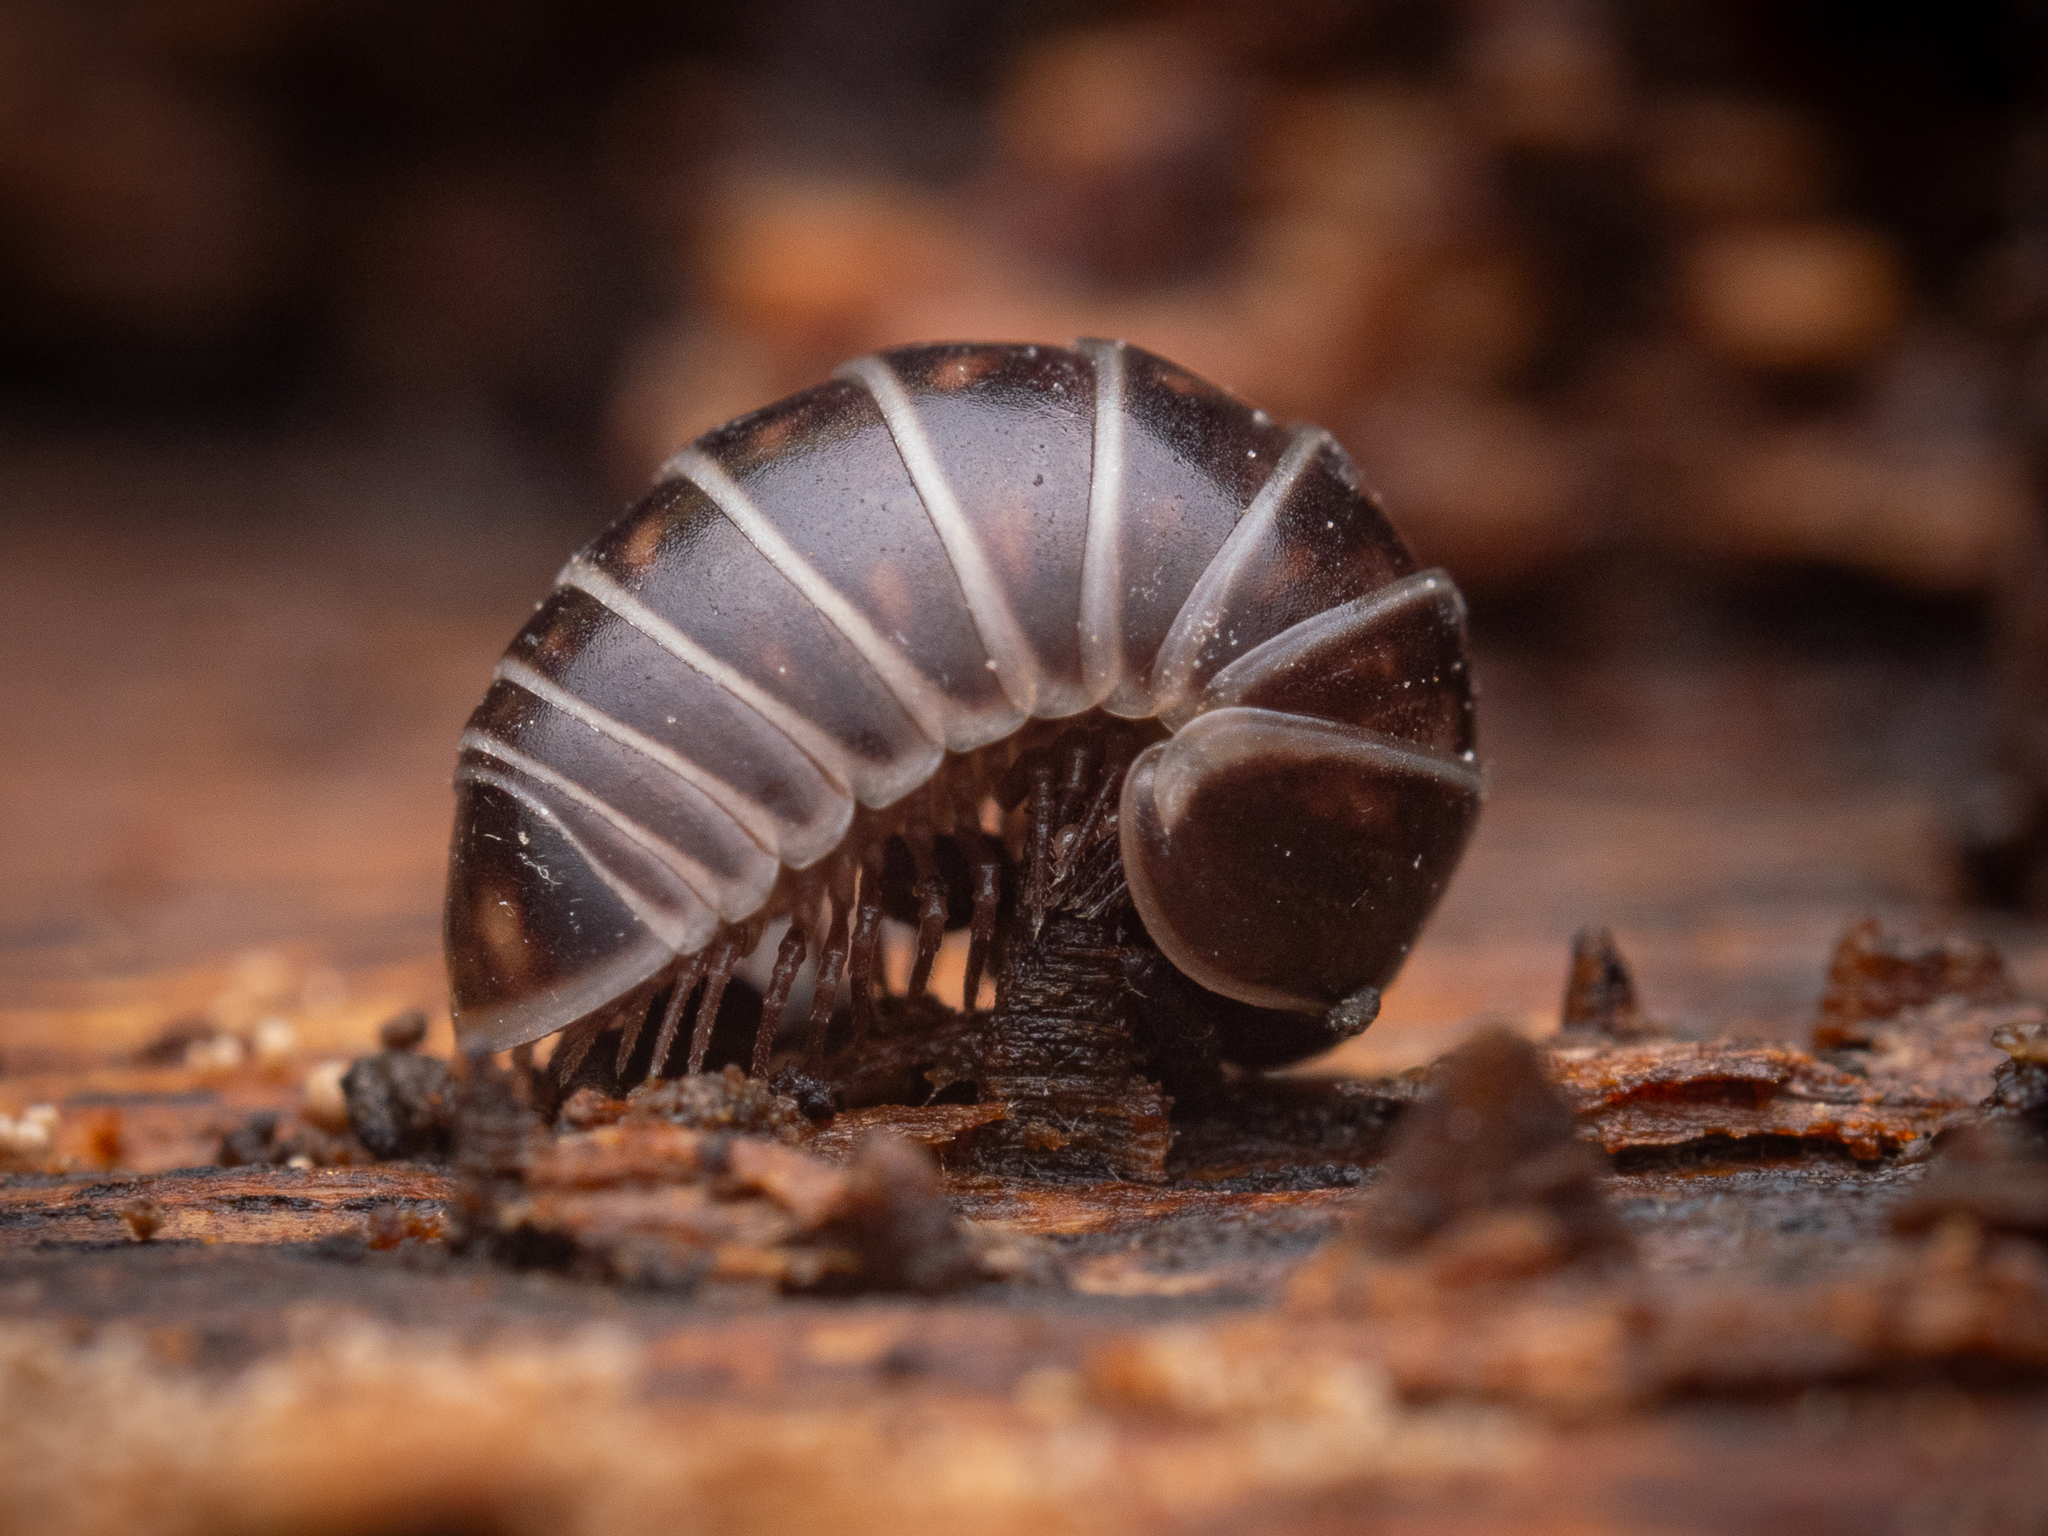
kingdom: Animalia
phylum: Arthropoda
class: Diplopoda
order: Glomerida
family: Glomeridae
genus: Glomeris
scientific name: Glomeris marginata
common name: Bordered pill millipede
